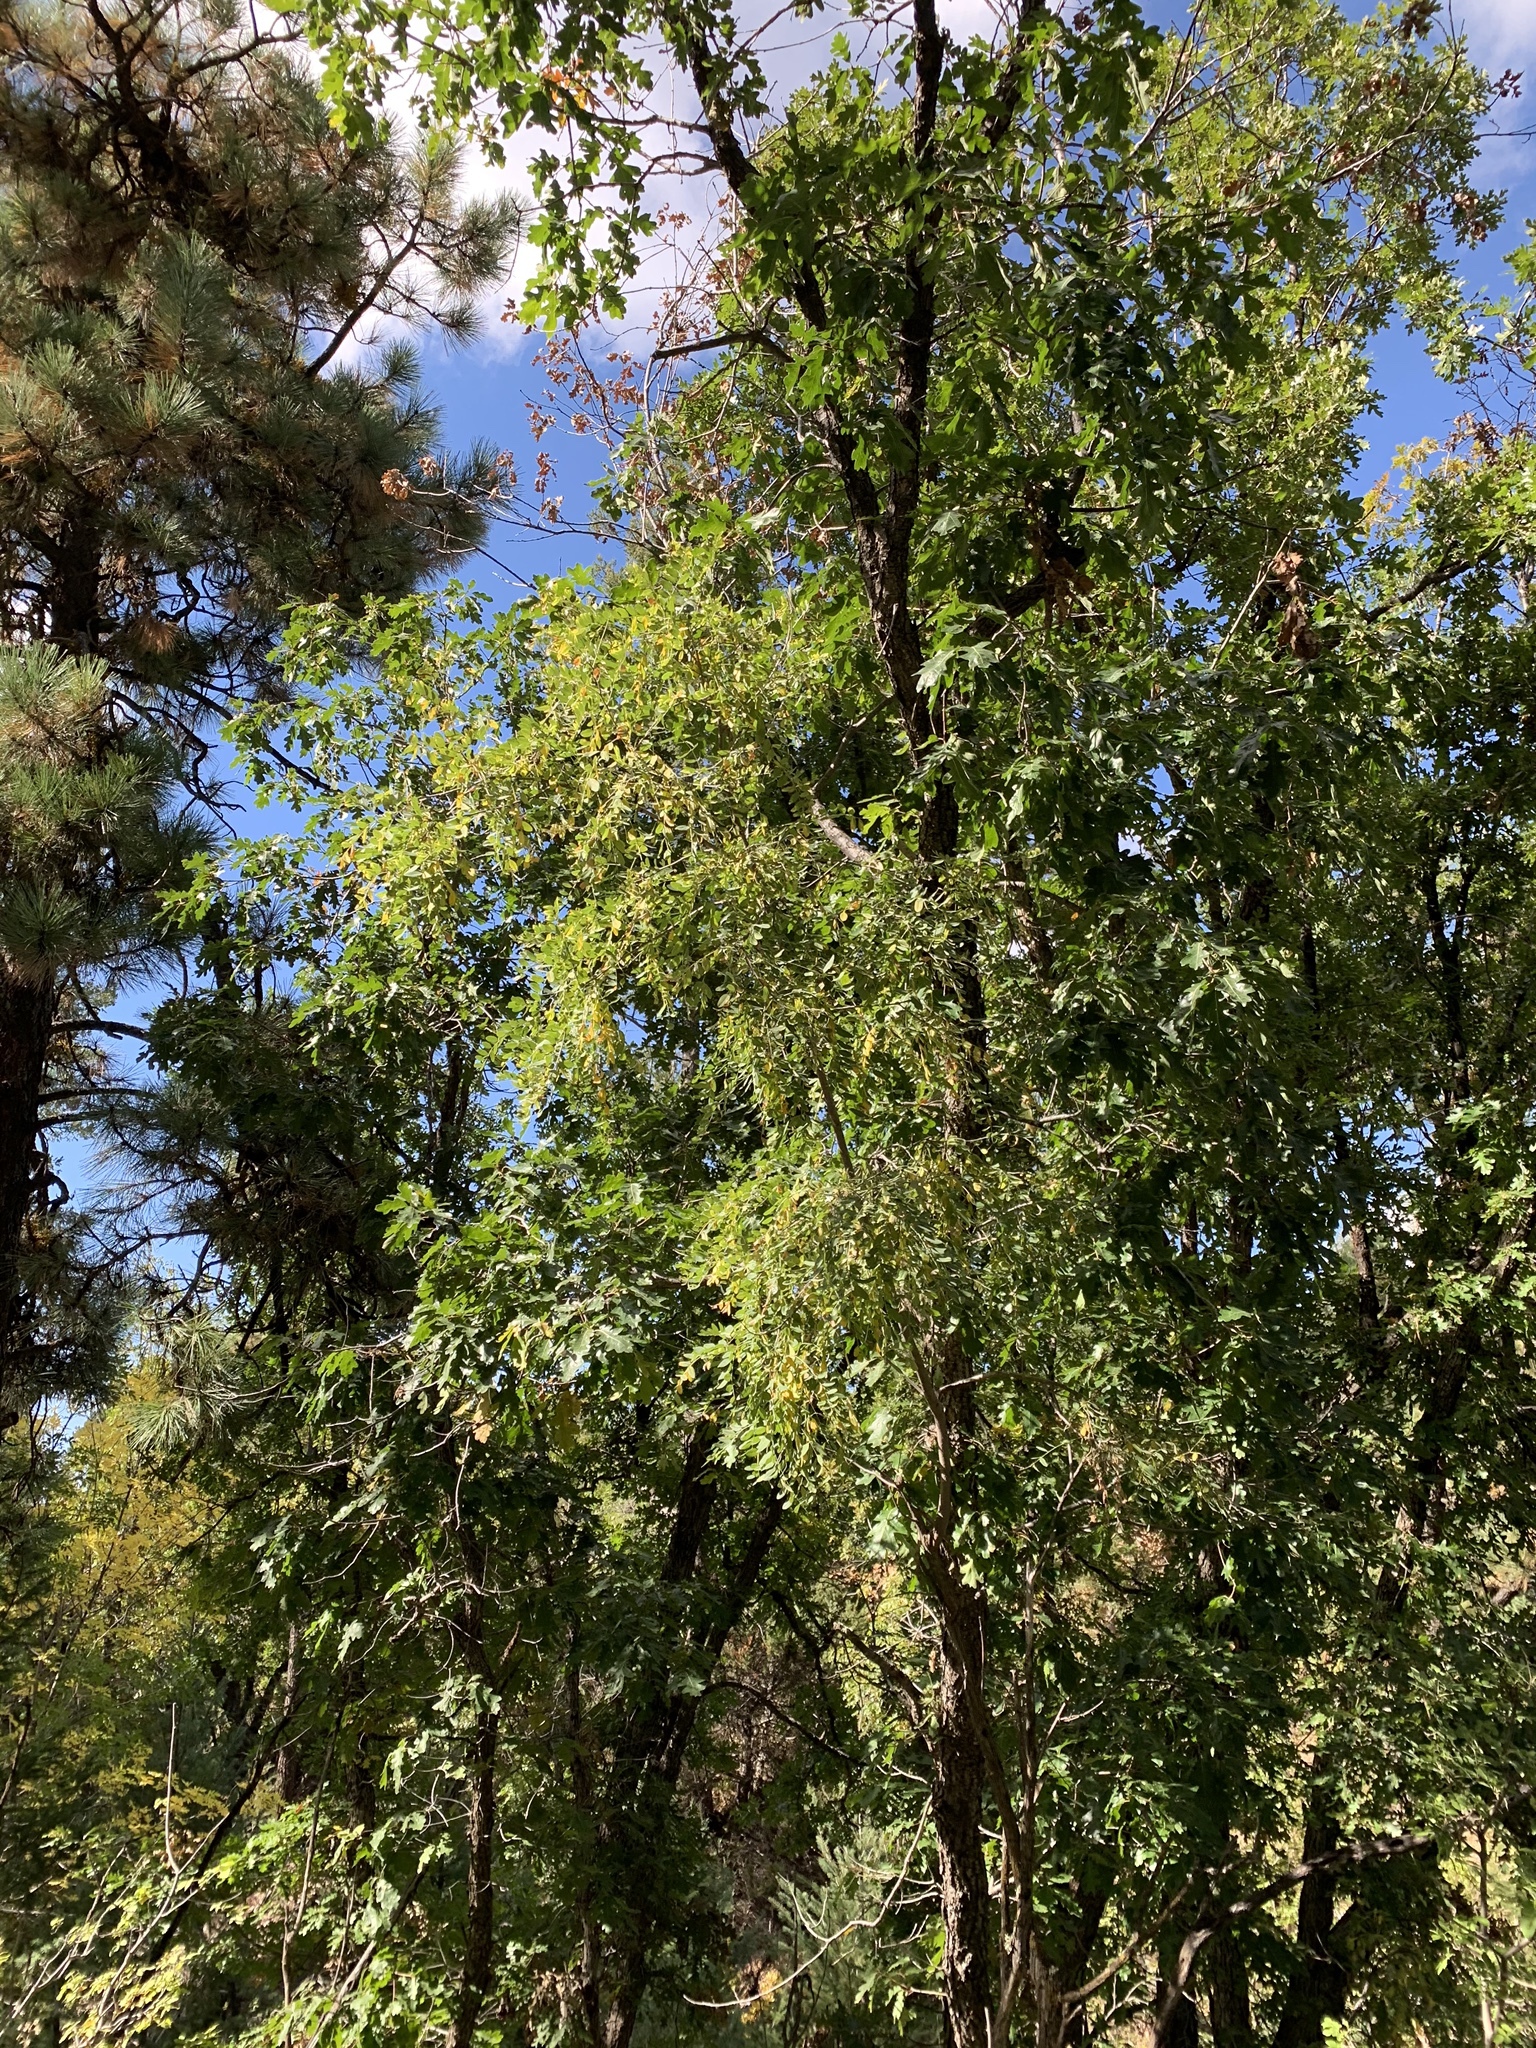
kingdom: Plantae
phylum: Tracheophyta
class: Magnoliopsida
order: Fabales
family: Fabaceae
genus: Robinia
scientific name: Robinia neomexicana
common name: New mexico locust
